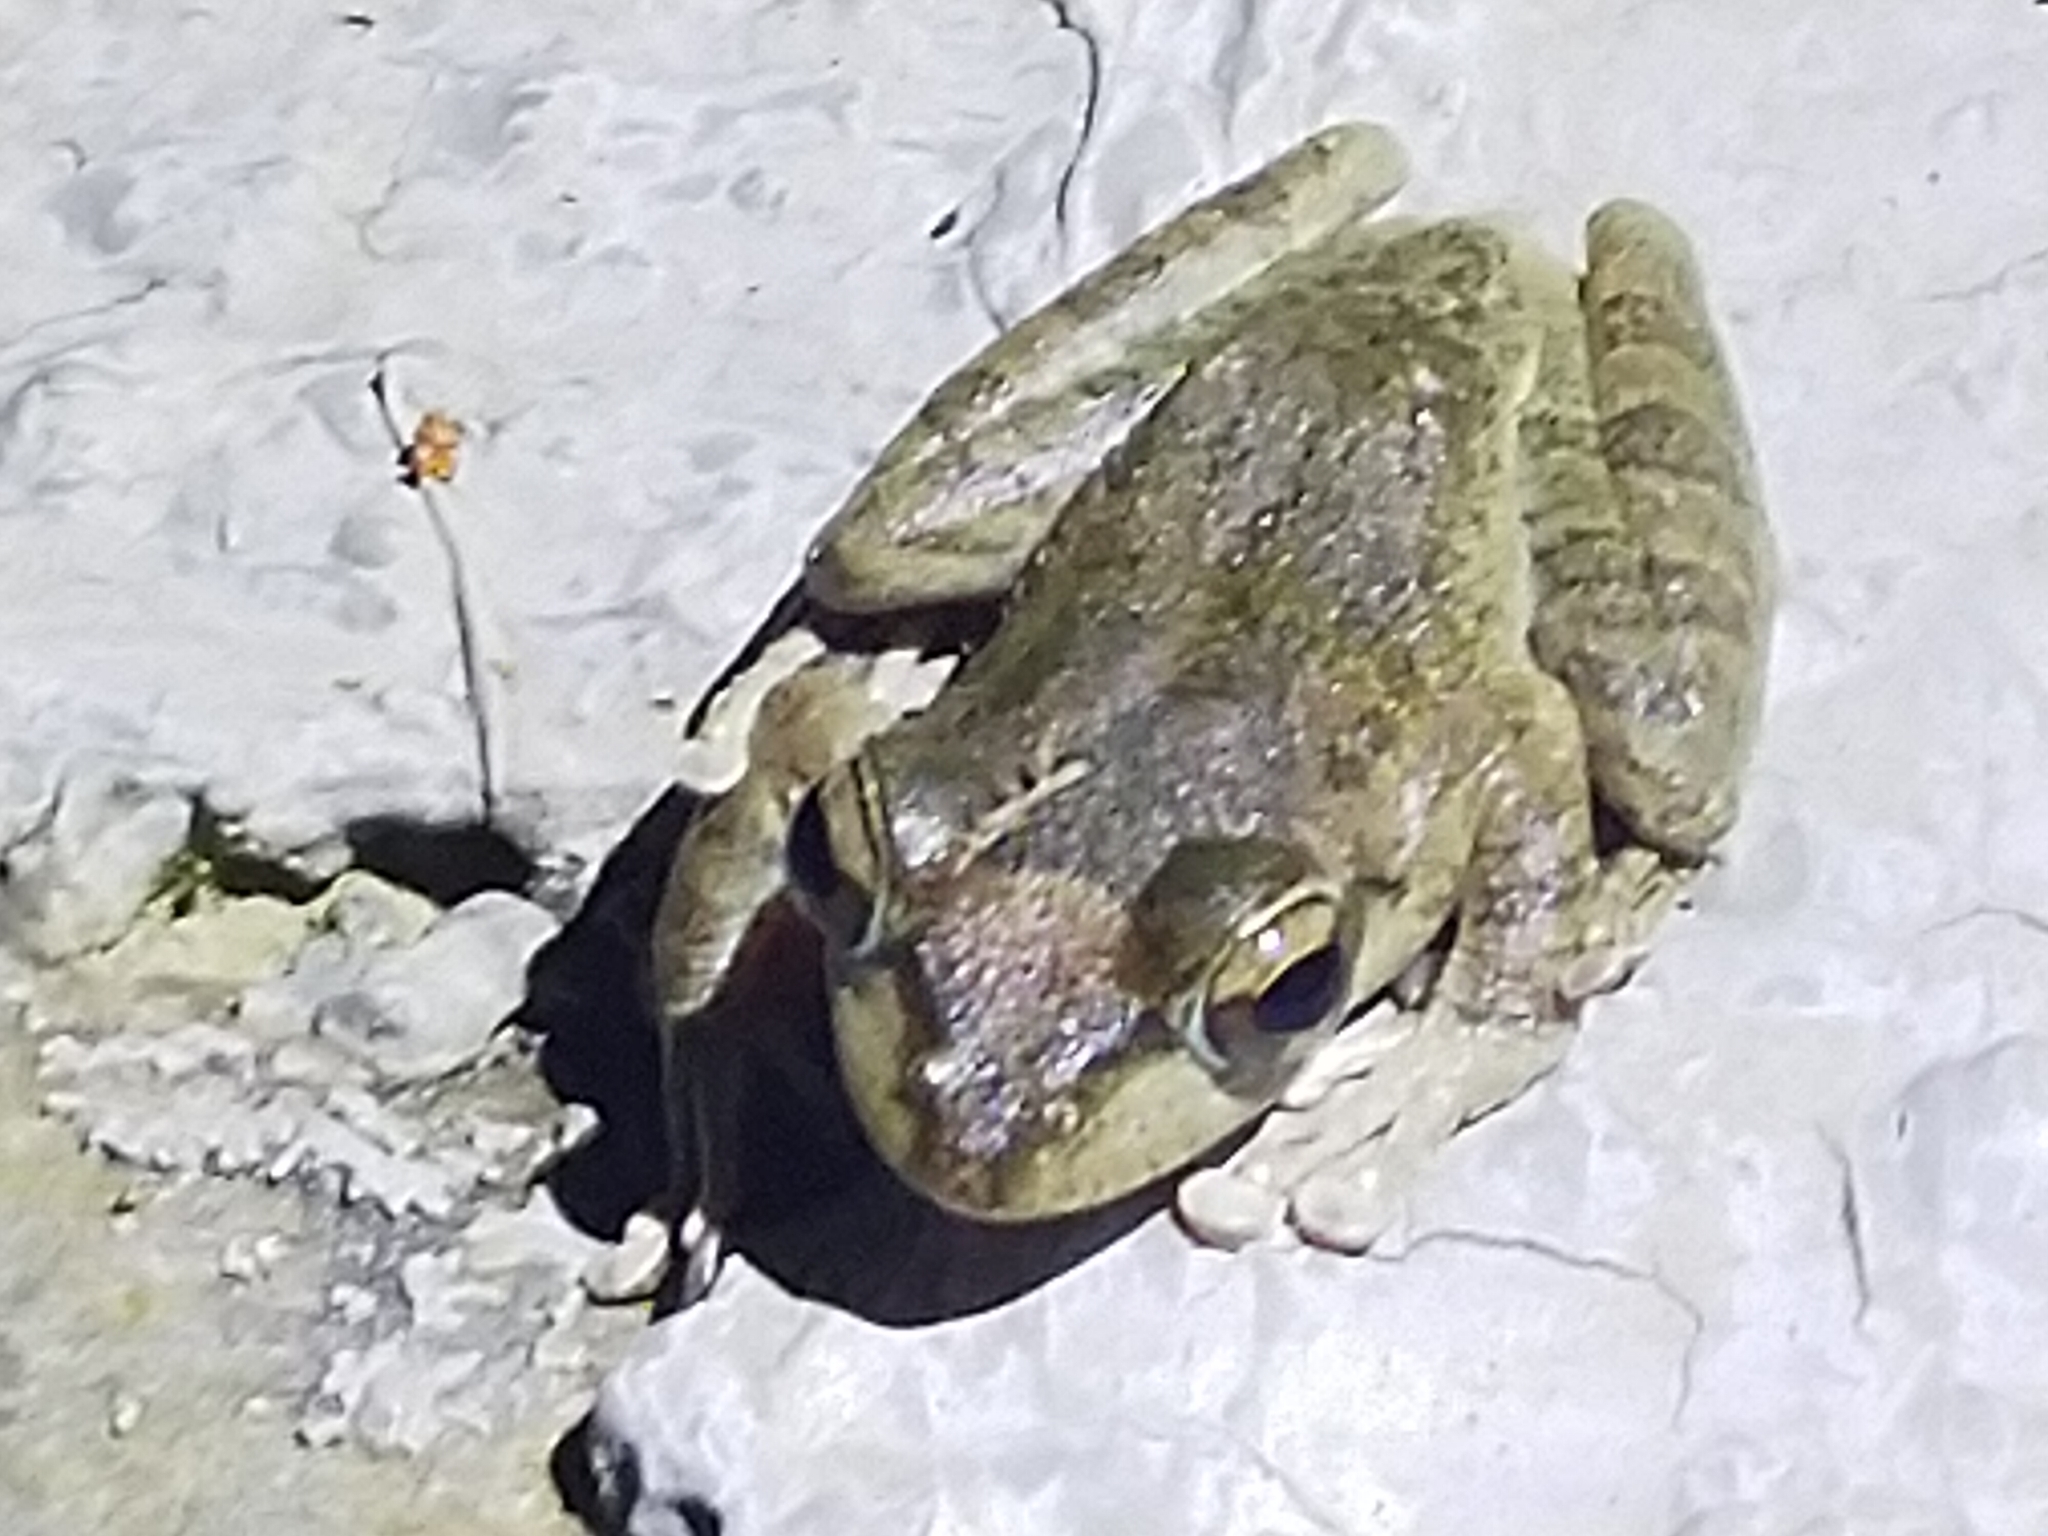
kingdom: Animalia
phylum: Chordata
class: Amphibia
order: Anura
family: Rhacophoridae
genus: Buergeria
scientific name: Buergeria robusta
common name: Brown treefrog
